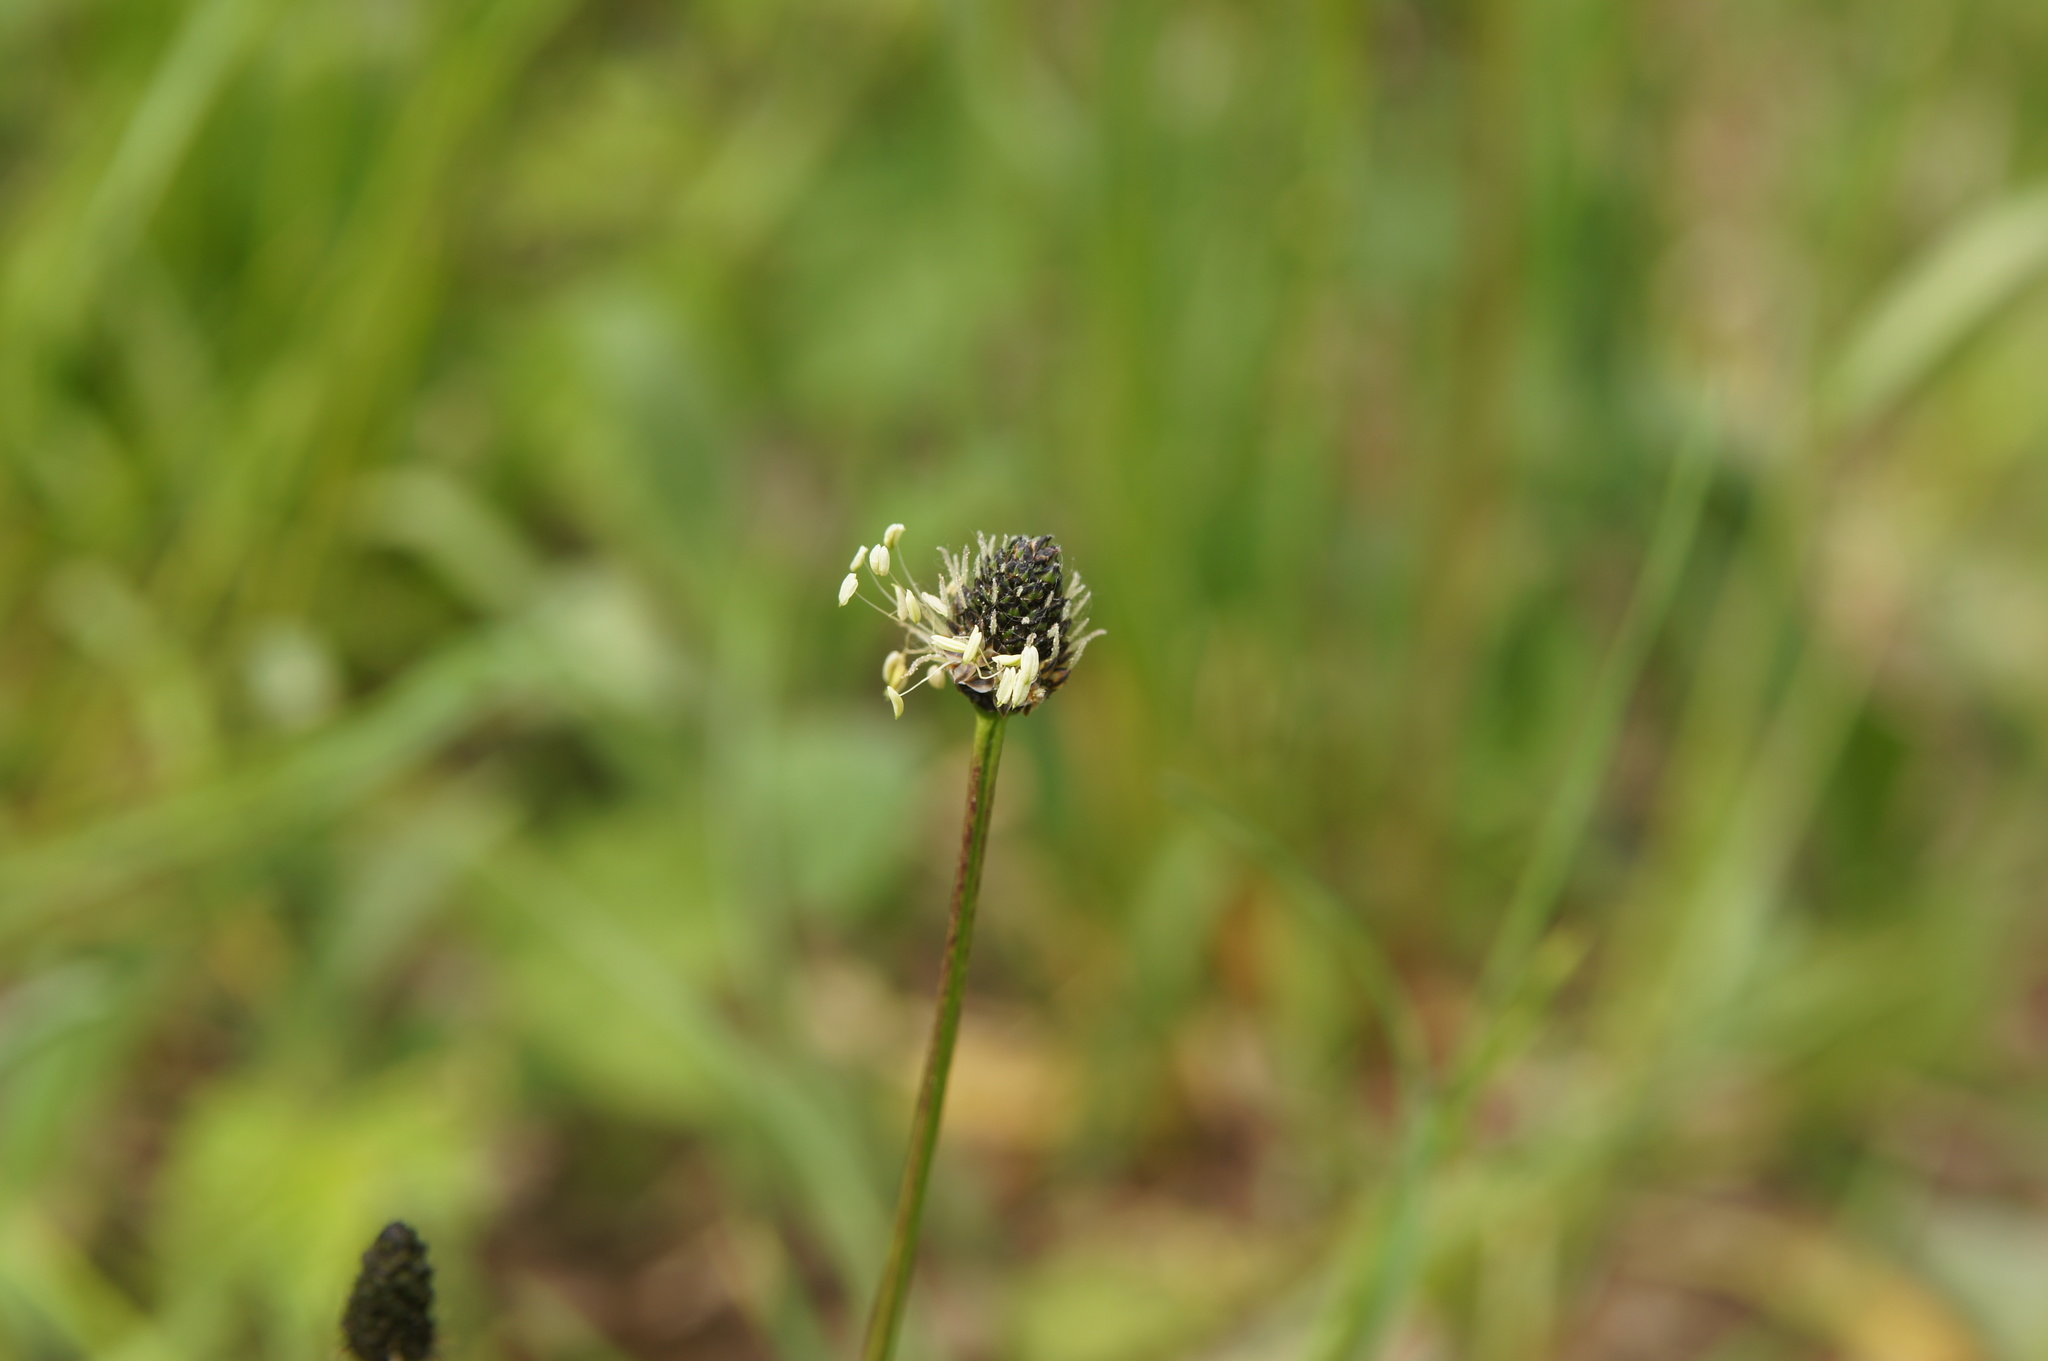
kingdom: Plantae
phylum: Tracheophyta
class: Magnoliopsida
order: Lamiales
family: Plantaginaceae
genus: Plantago
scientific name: Plantago lanceolata
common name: Ribwort plantain
